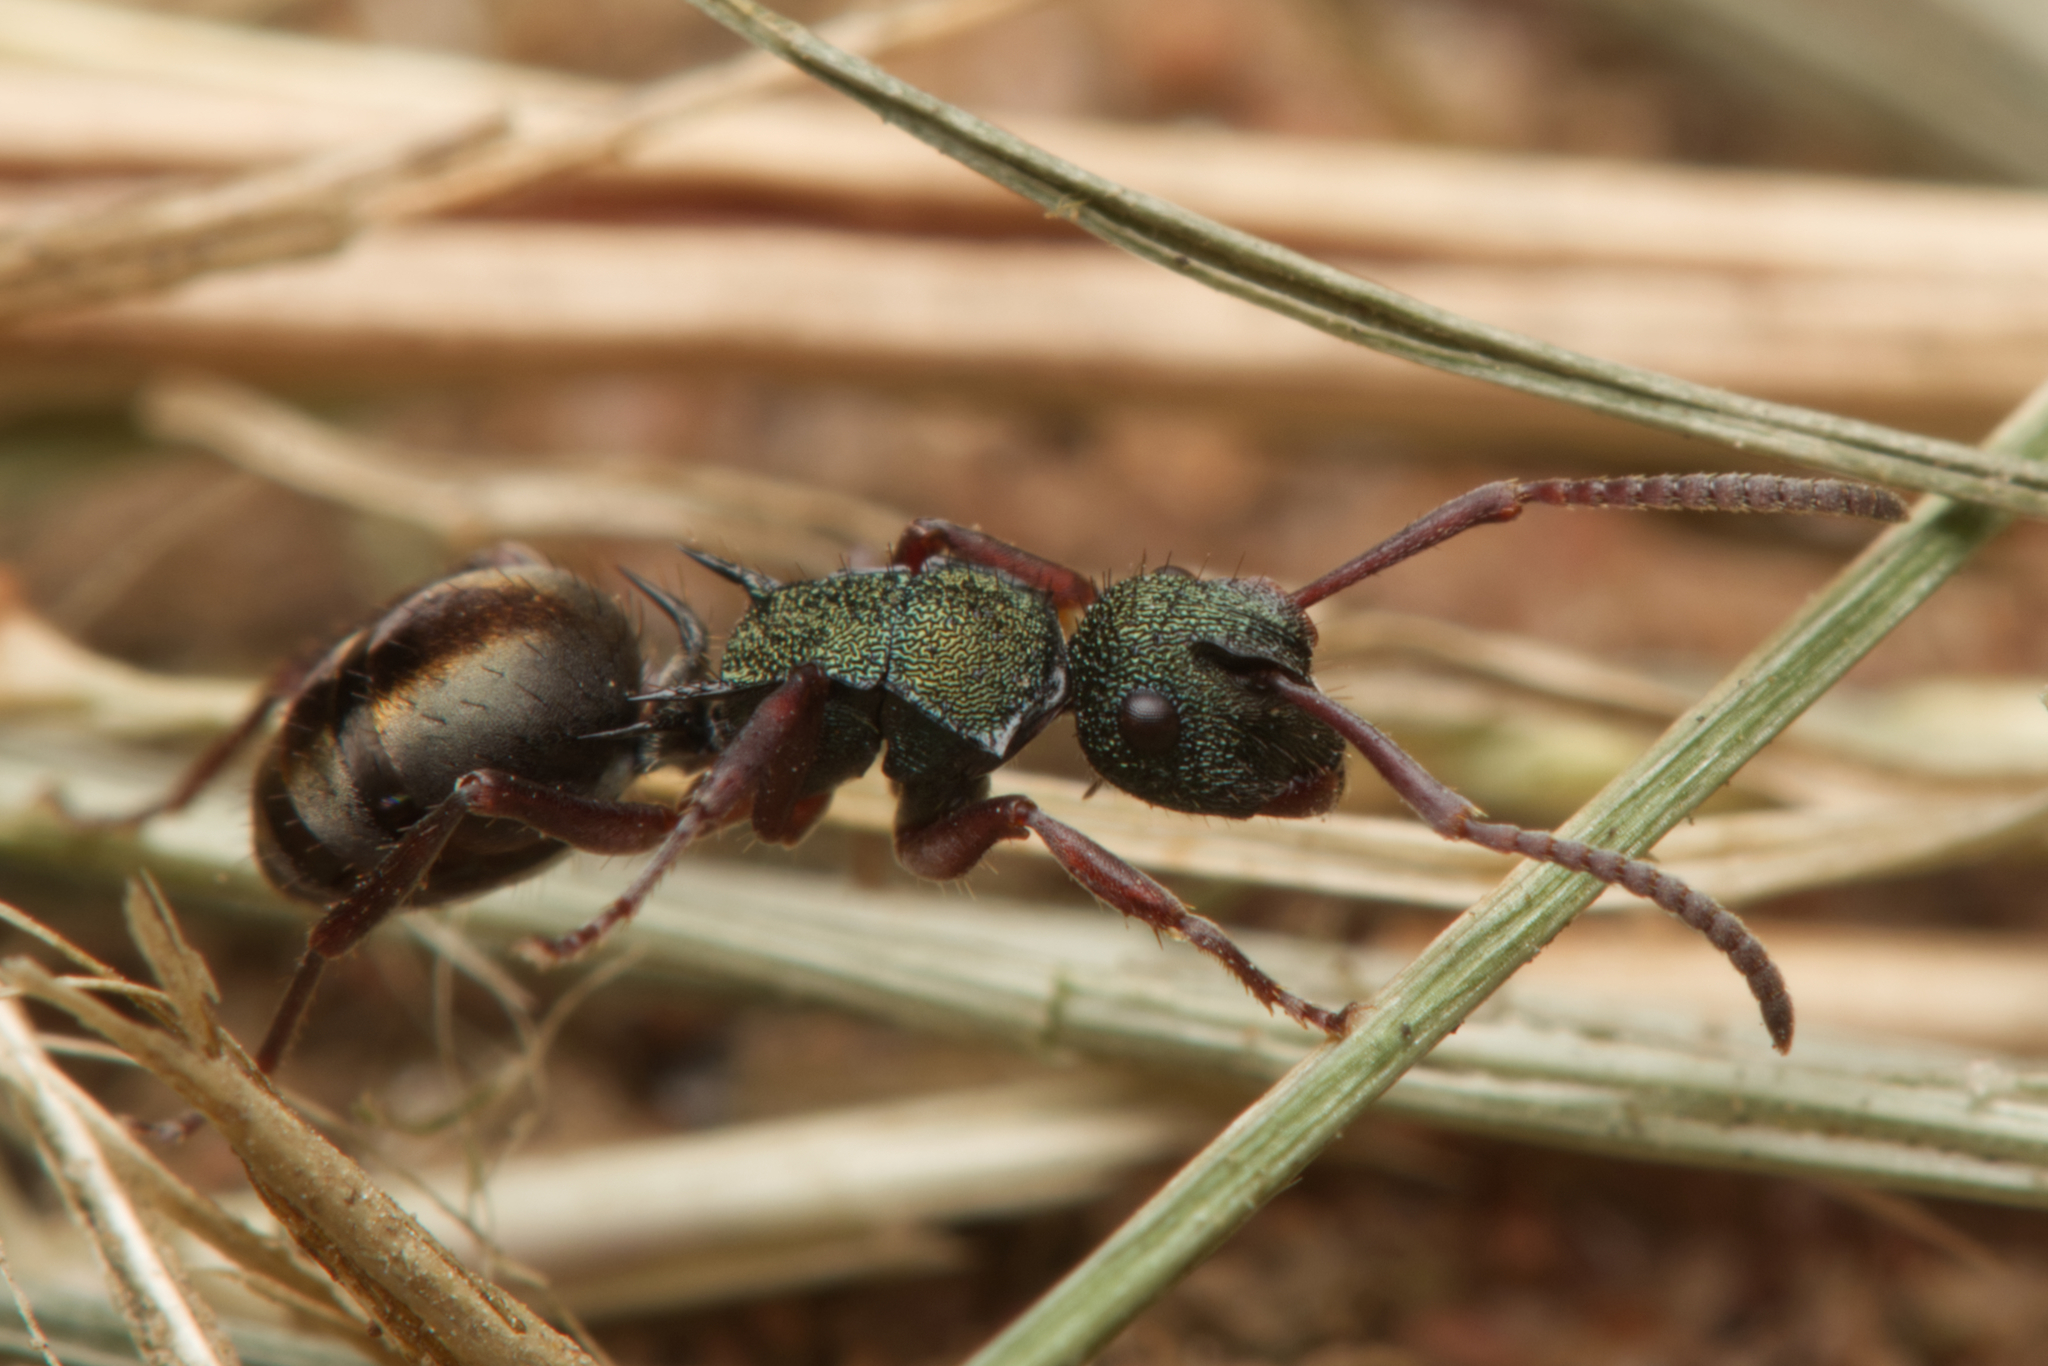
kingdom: Animalia
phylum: Arthropoda
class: Insecta
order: Hymenoptera
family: Formicidae
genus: Polyrhachis
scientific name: Polyrhachis hookeri
